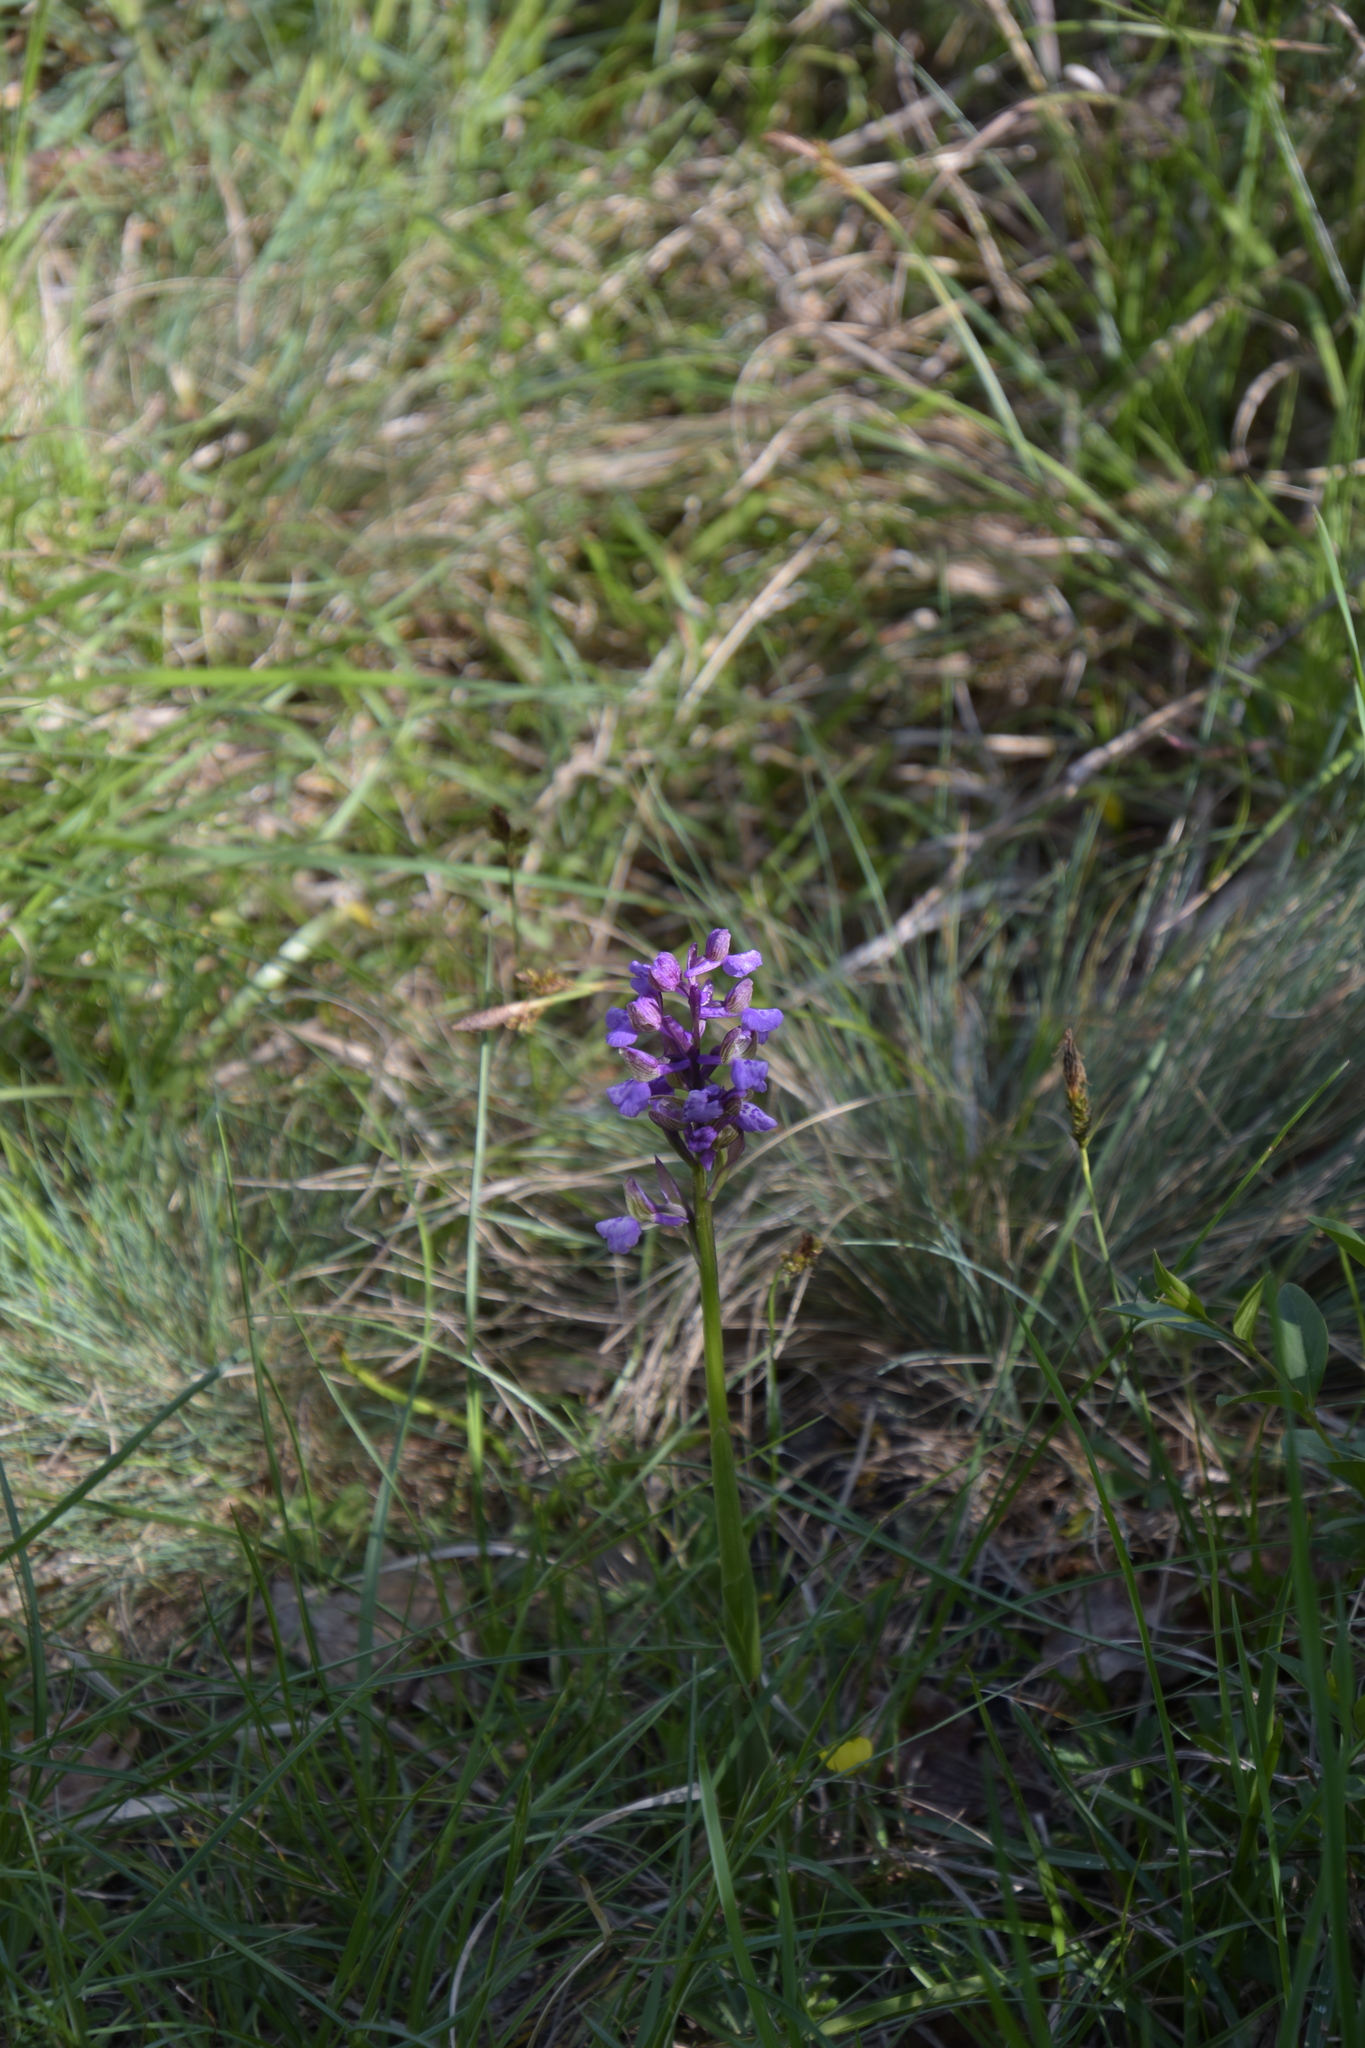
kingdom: Plantae
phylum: Tracheophyta
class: Liliopsida
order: Asparagales
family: Orchidaceae
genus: Anacamptis
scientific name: Anacamptis morio
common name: Green-winged orchid
